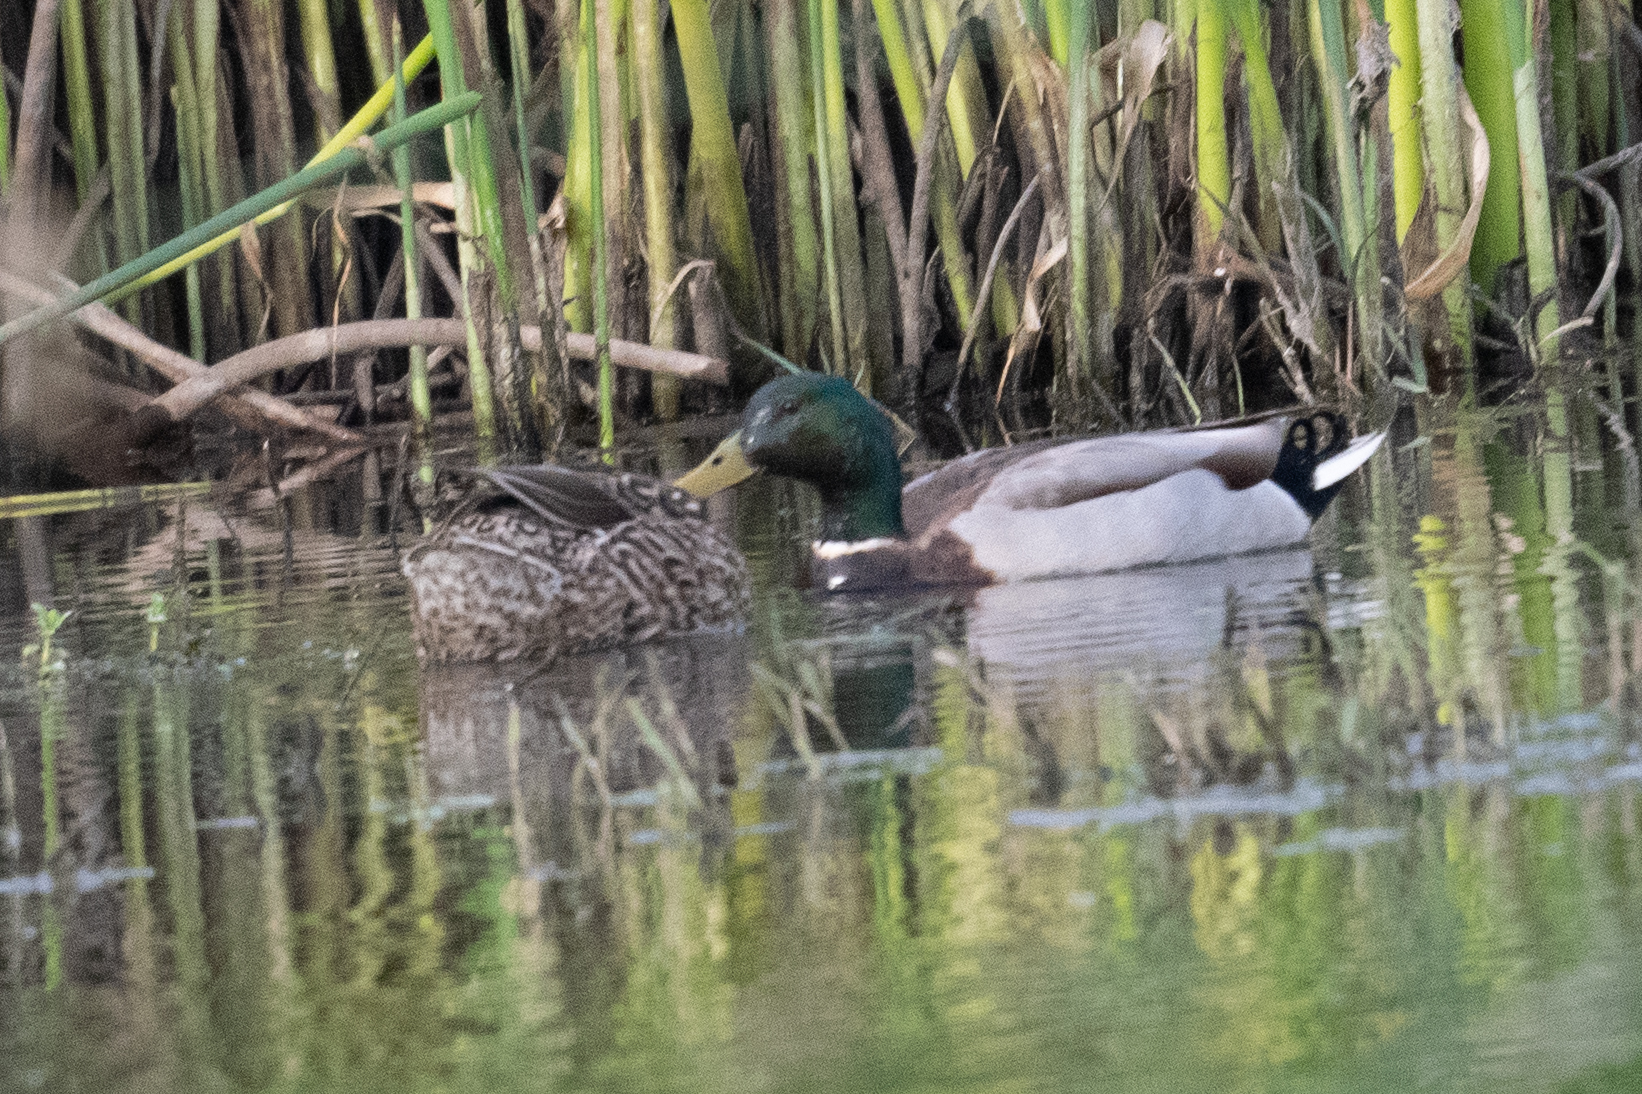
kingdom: Animalia
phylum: Chordata
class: Aves
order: Anseriformes
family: Anatidae
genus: Anas
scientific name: Anas platyrhynchos
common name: Mallard
